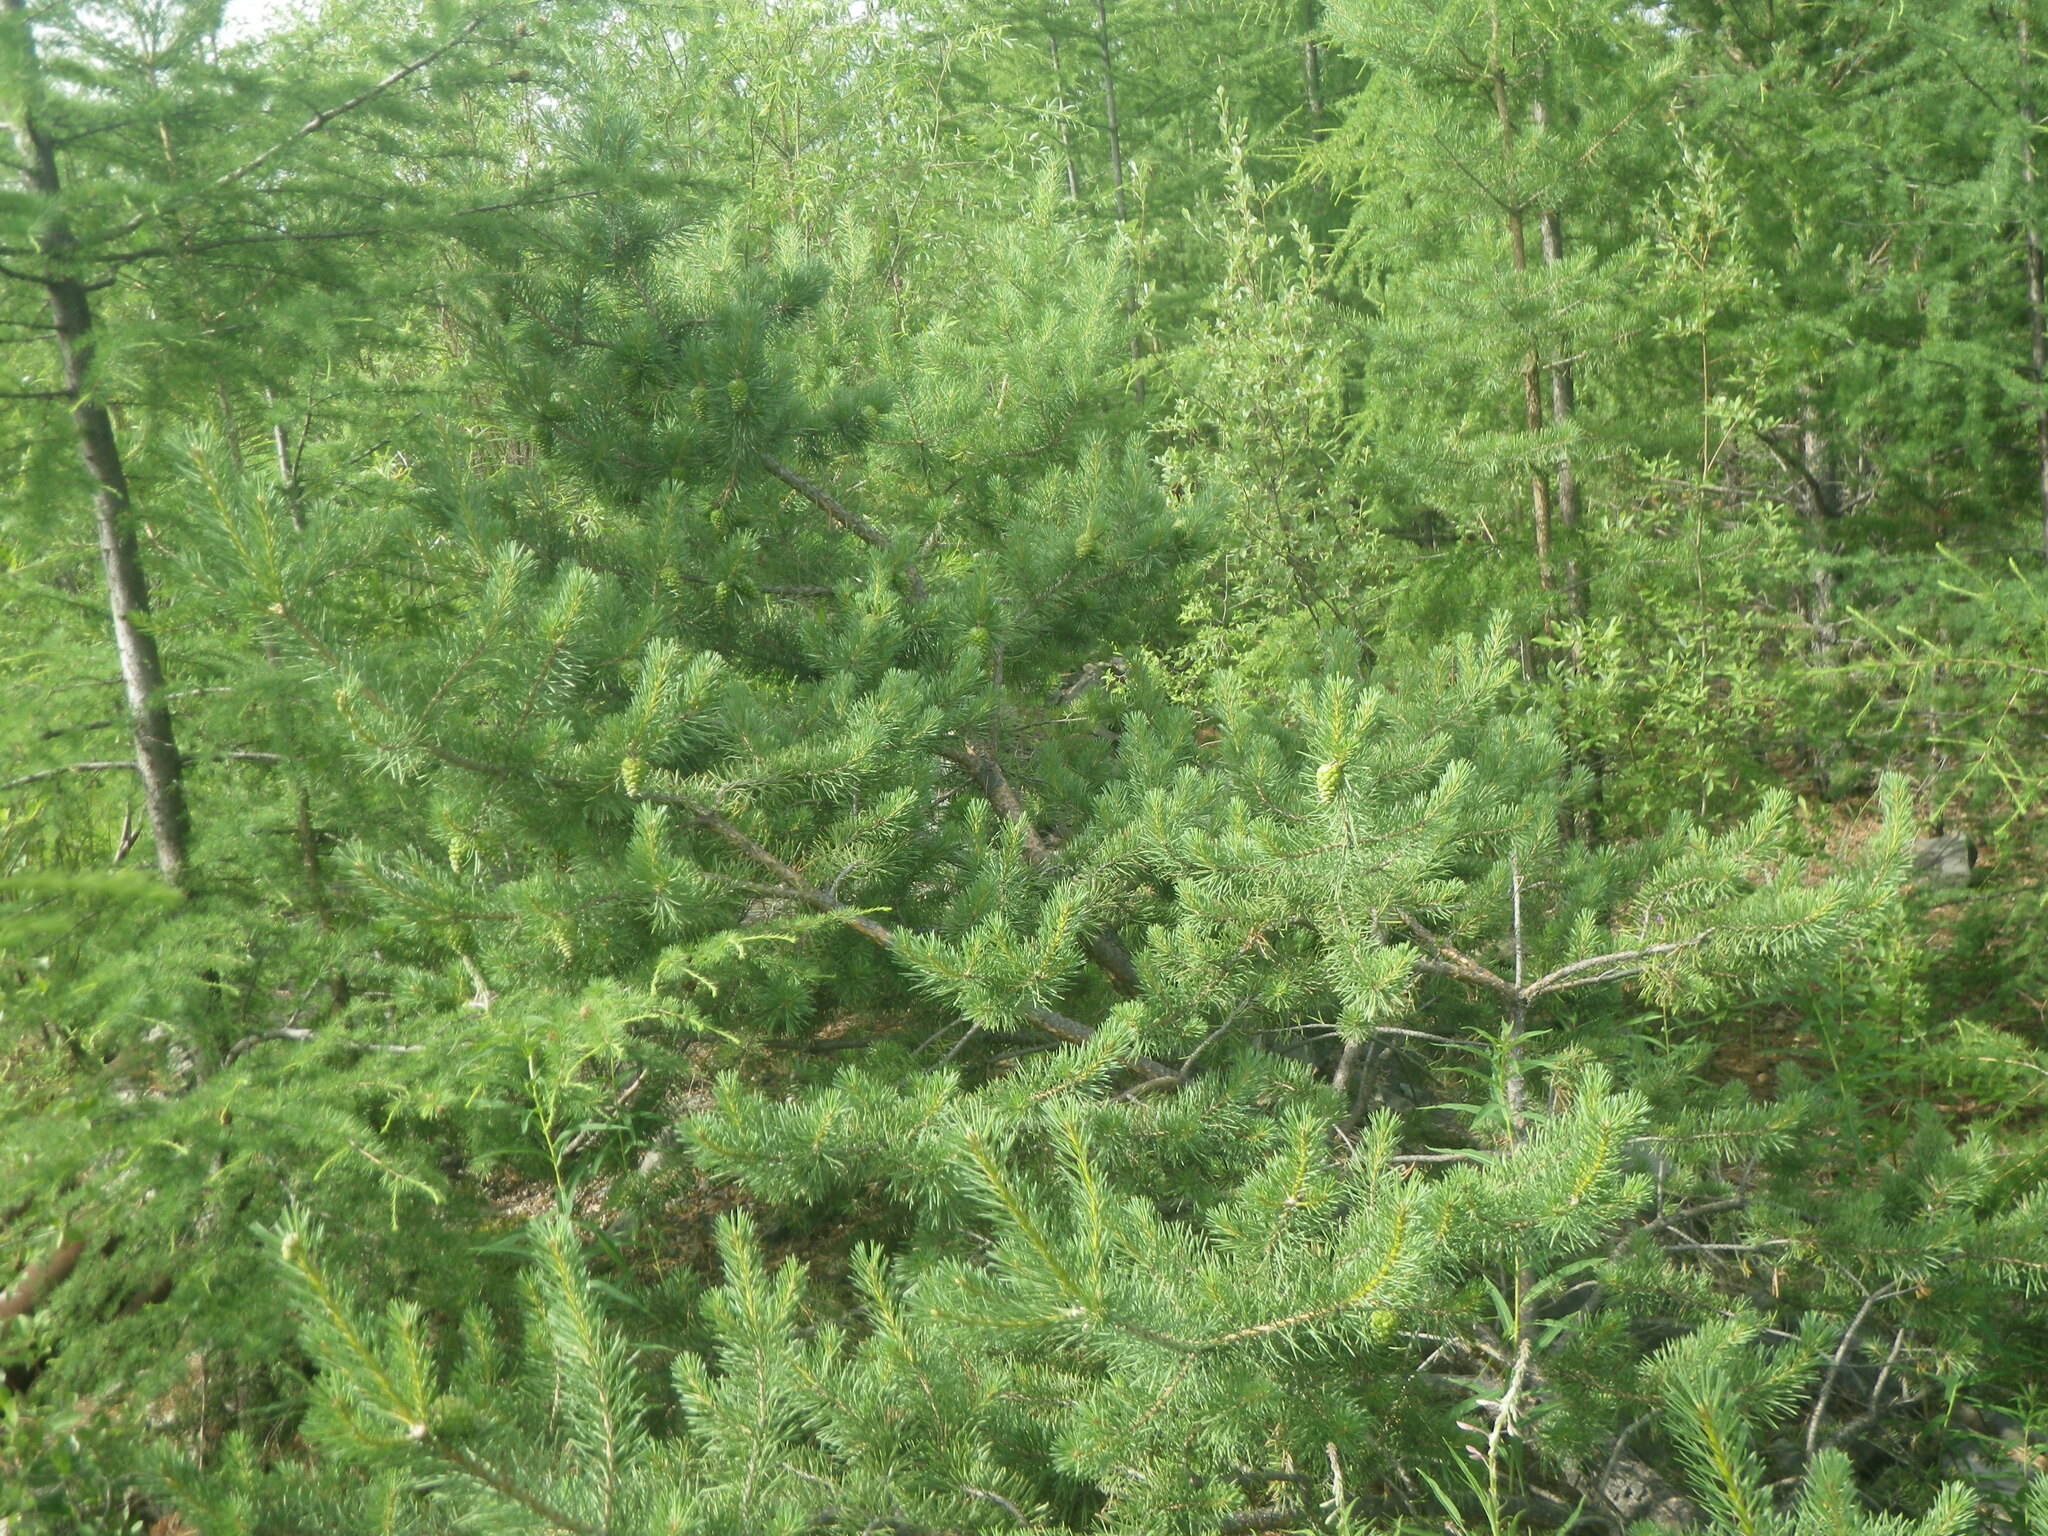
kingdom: Plantae
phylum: Tracheophyta
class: Pinopsida
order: Pinales
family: Pinaceae
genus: Pinus
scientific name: Pinus sylvestris
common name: Scots pine
